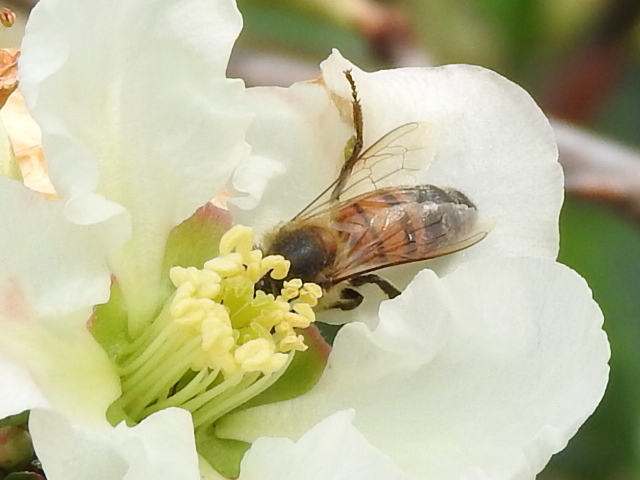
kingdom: Animalia
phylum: Arthropoda
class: Insecta
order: Hymenoptera
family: Apidae
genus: Apis
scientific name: Apis mellifera
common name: Honey bee
